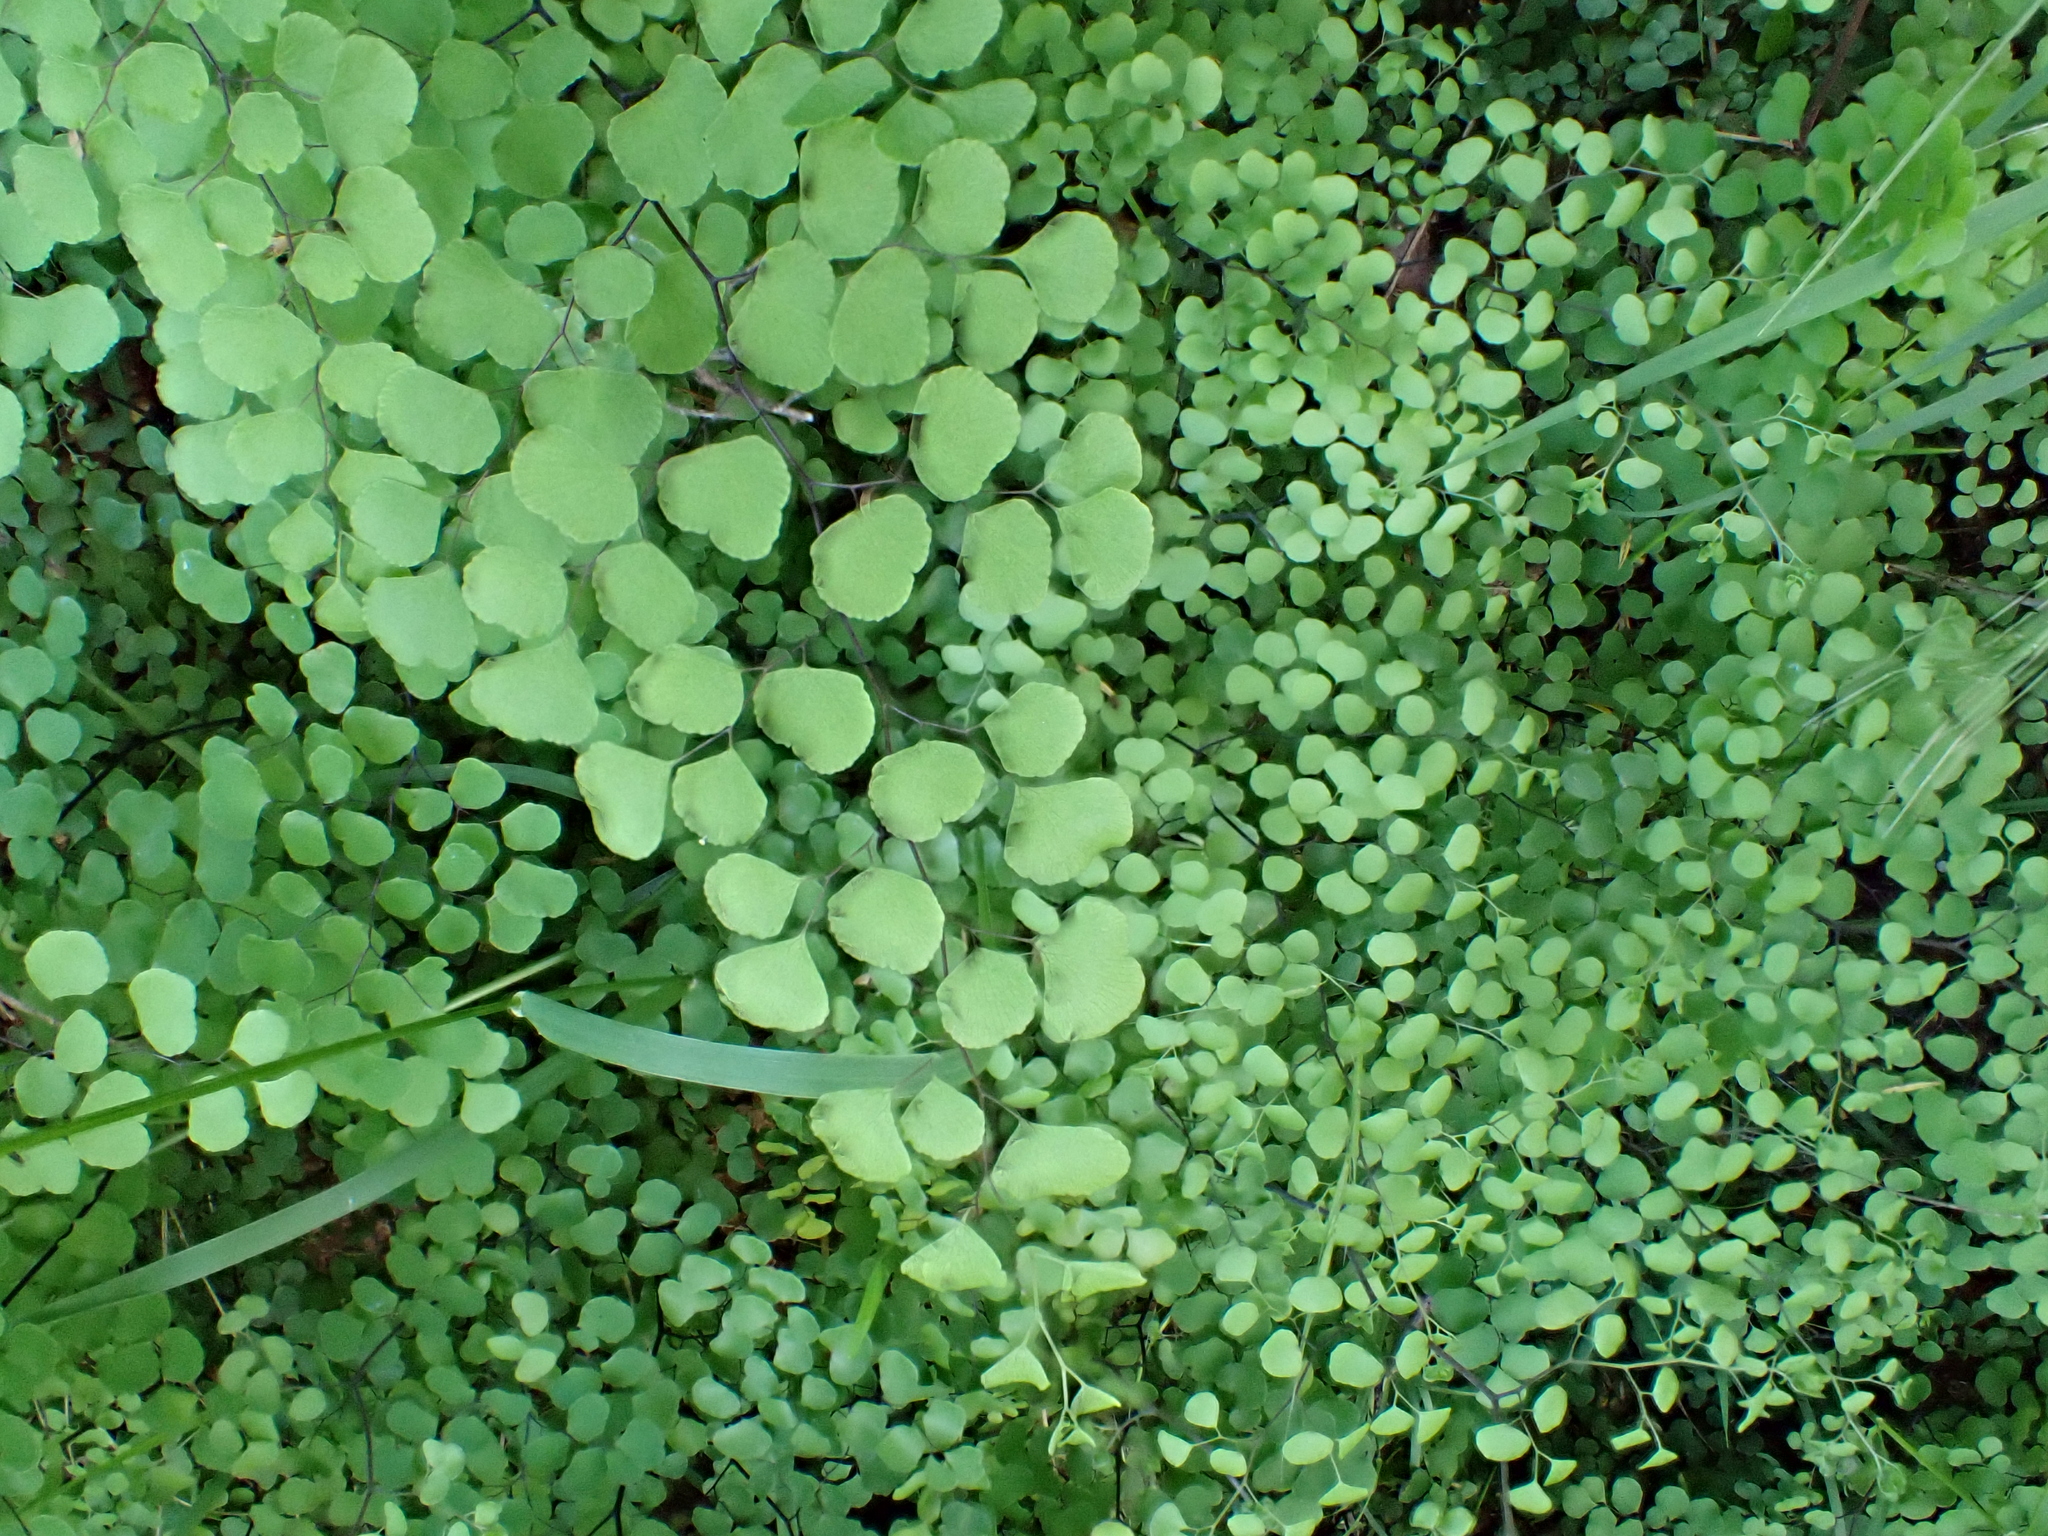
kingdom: Plantae
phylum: Tracheophyta
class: Polypodiopsida
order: Polypodiales
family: Pteridaceae
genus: Adiantum
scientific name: Adiantum aethiopicum
